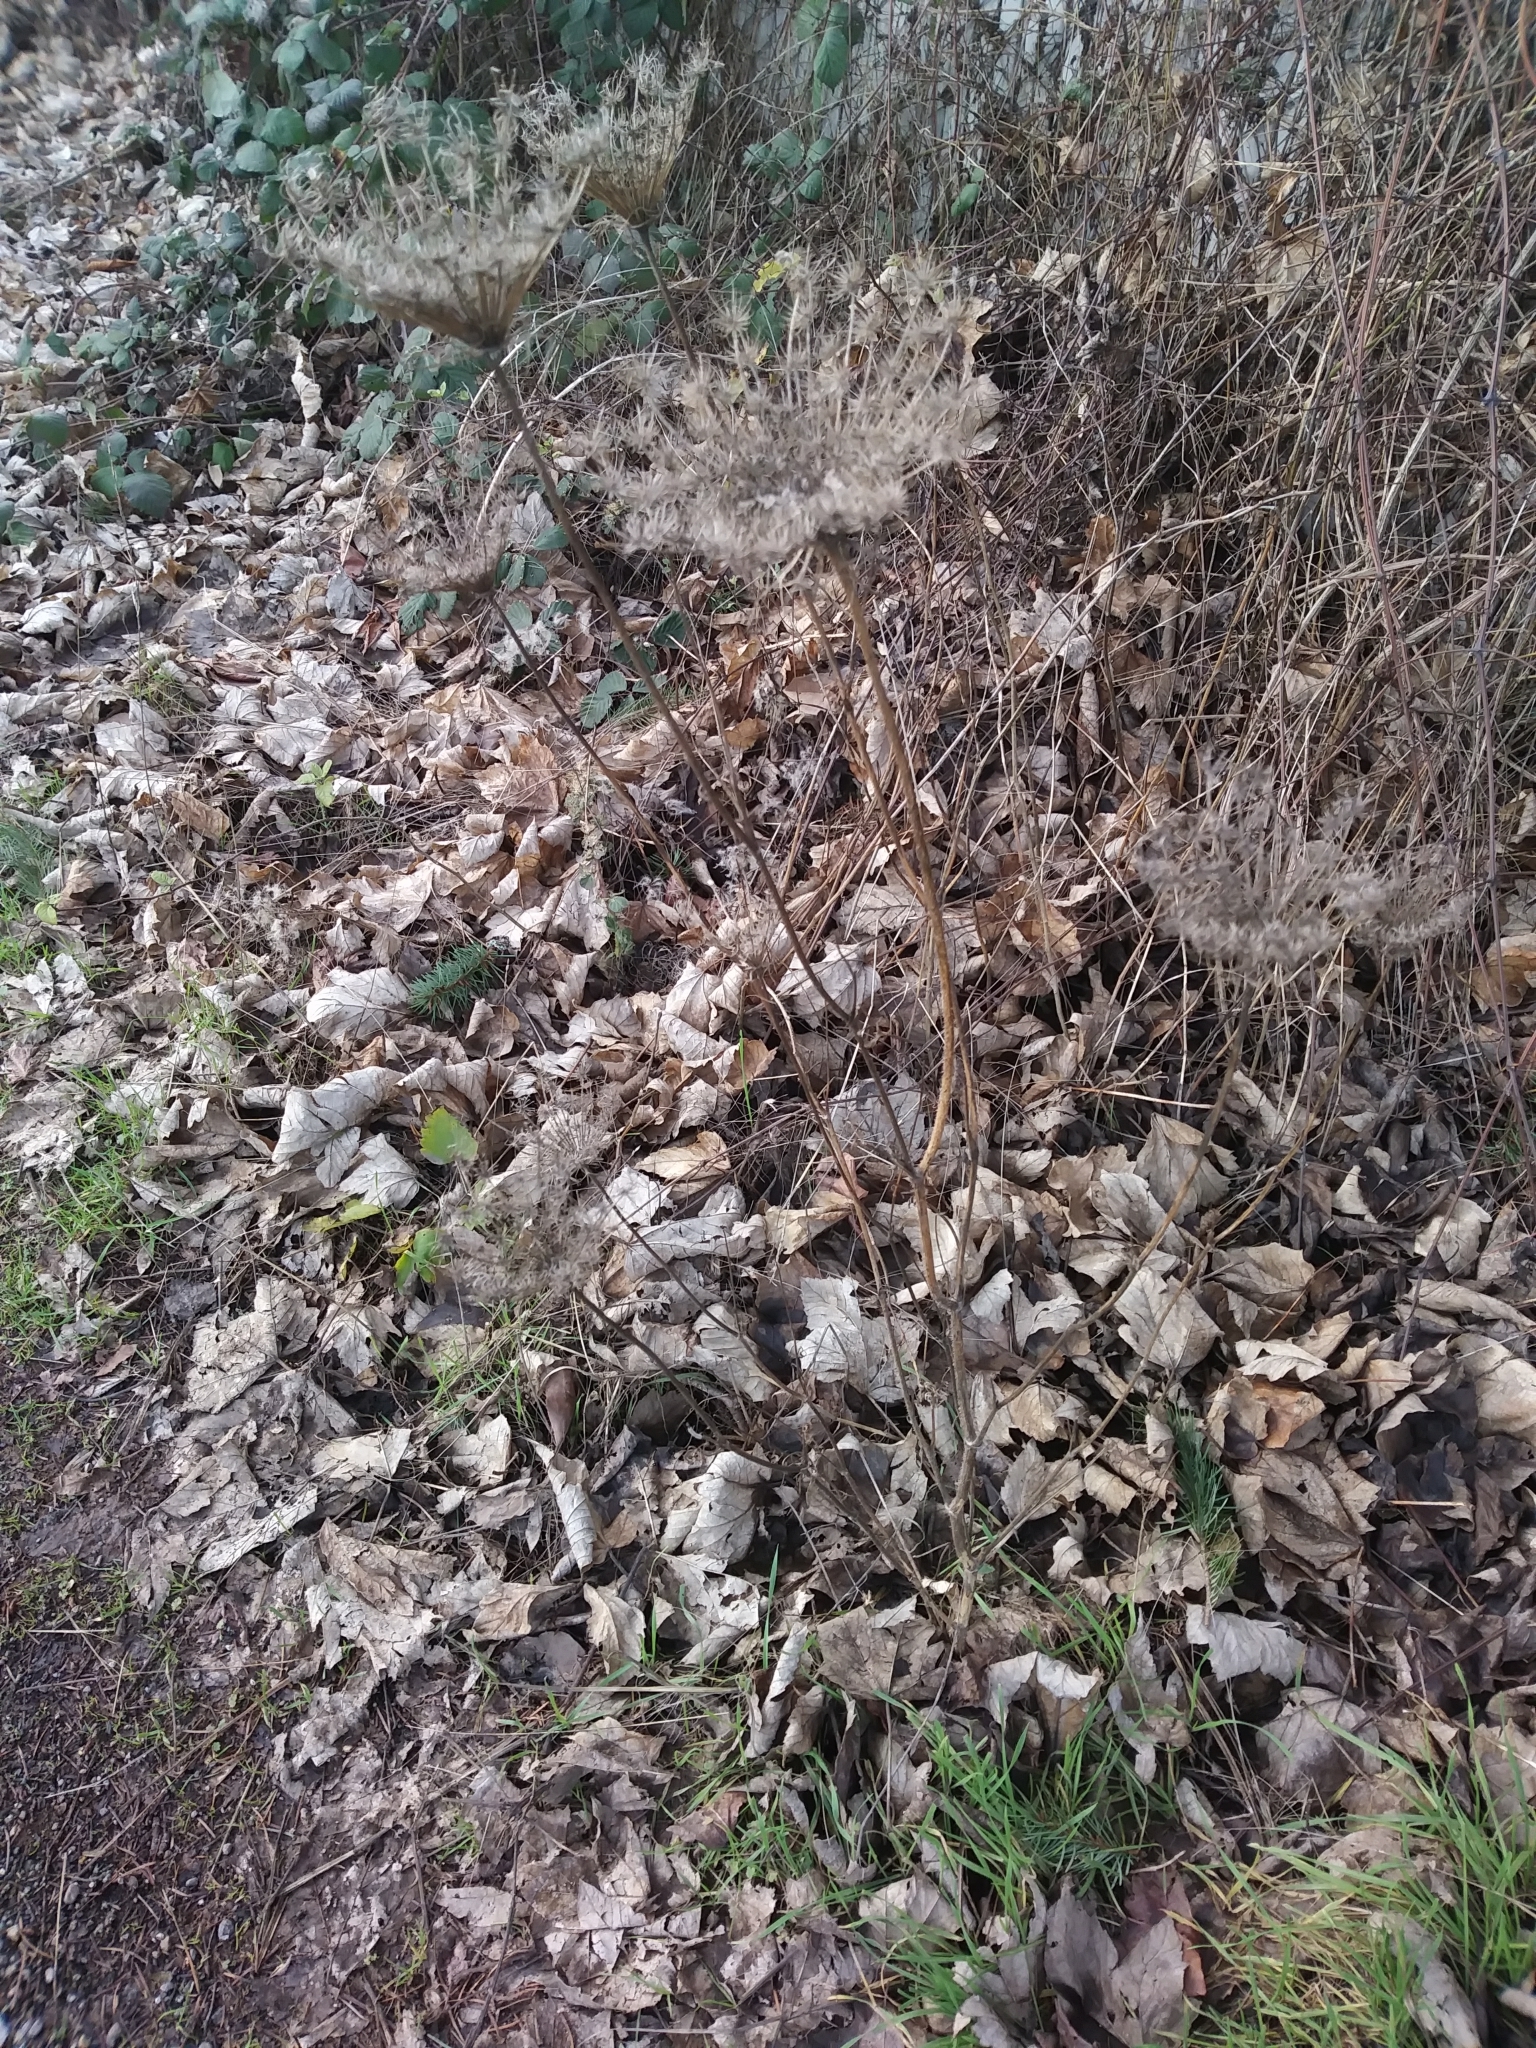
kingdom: Plantae
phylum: Tracheophyta
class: Magnoliopsida
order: Apiales
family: Apiaceae
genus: Daucus
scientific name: Daucus carota
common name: Wild carrot
